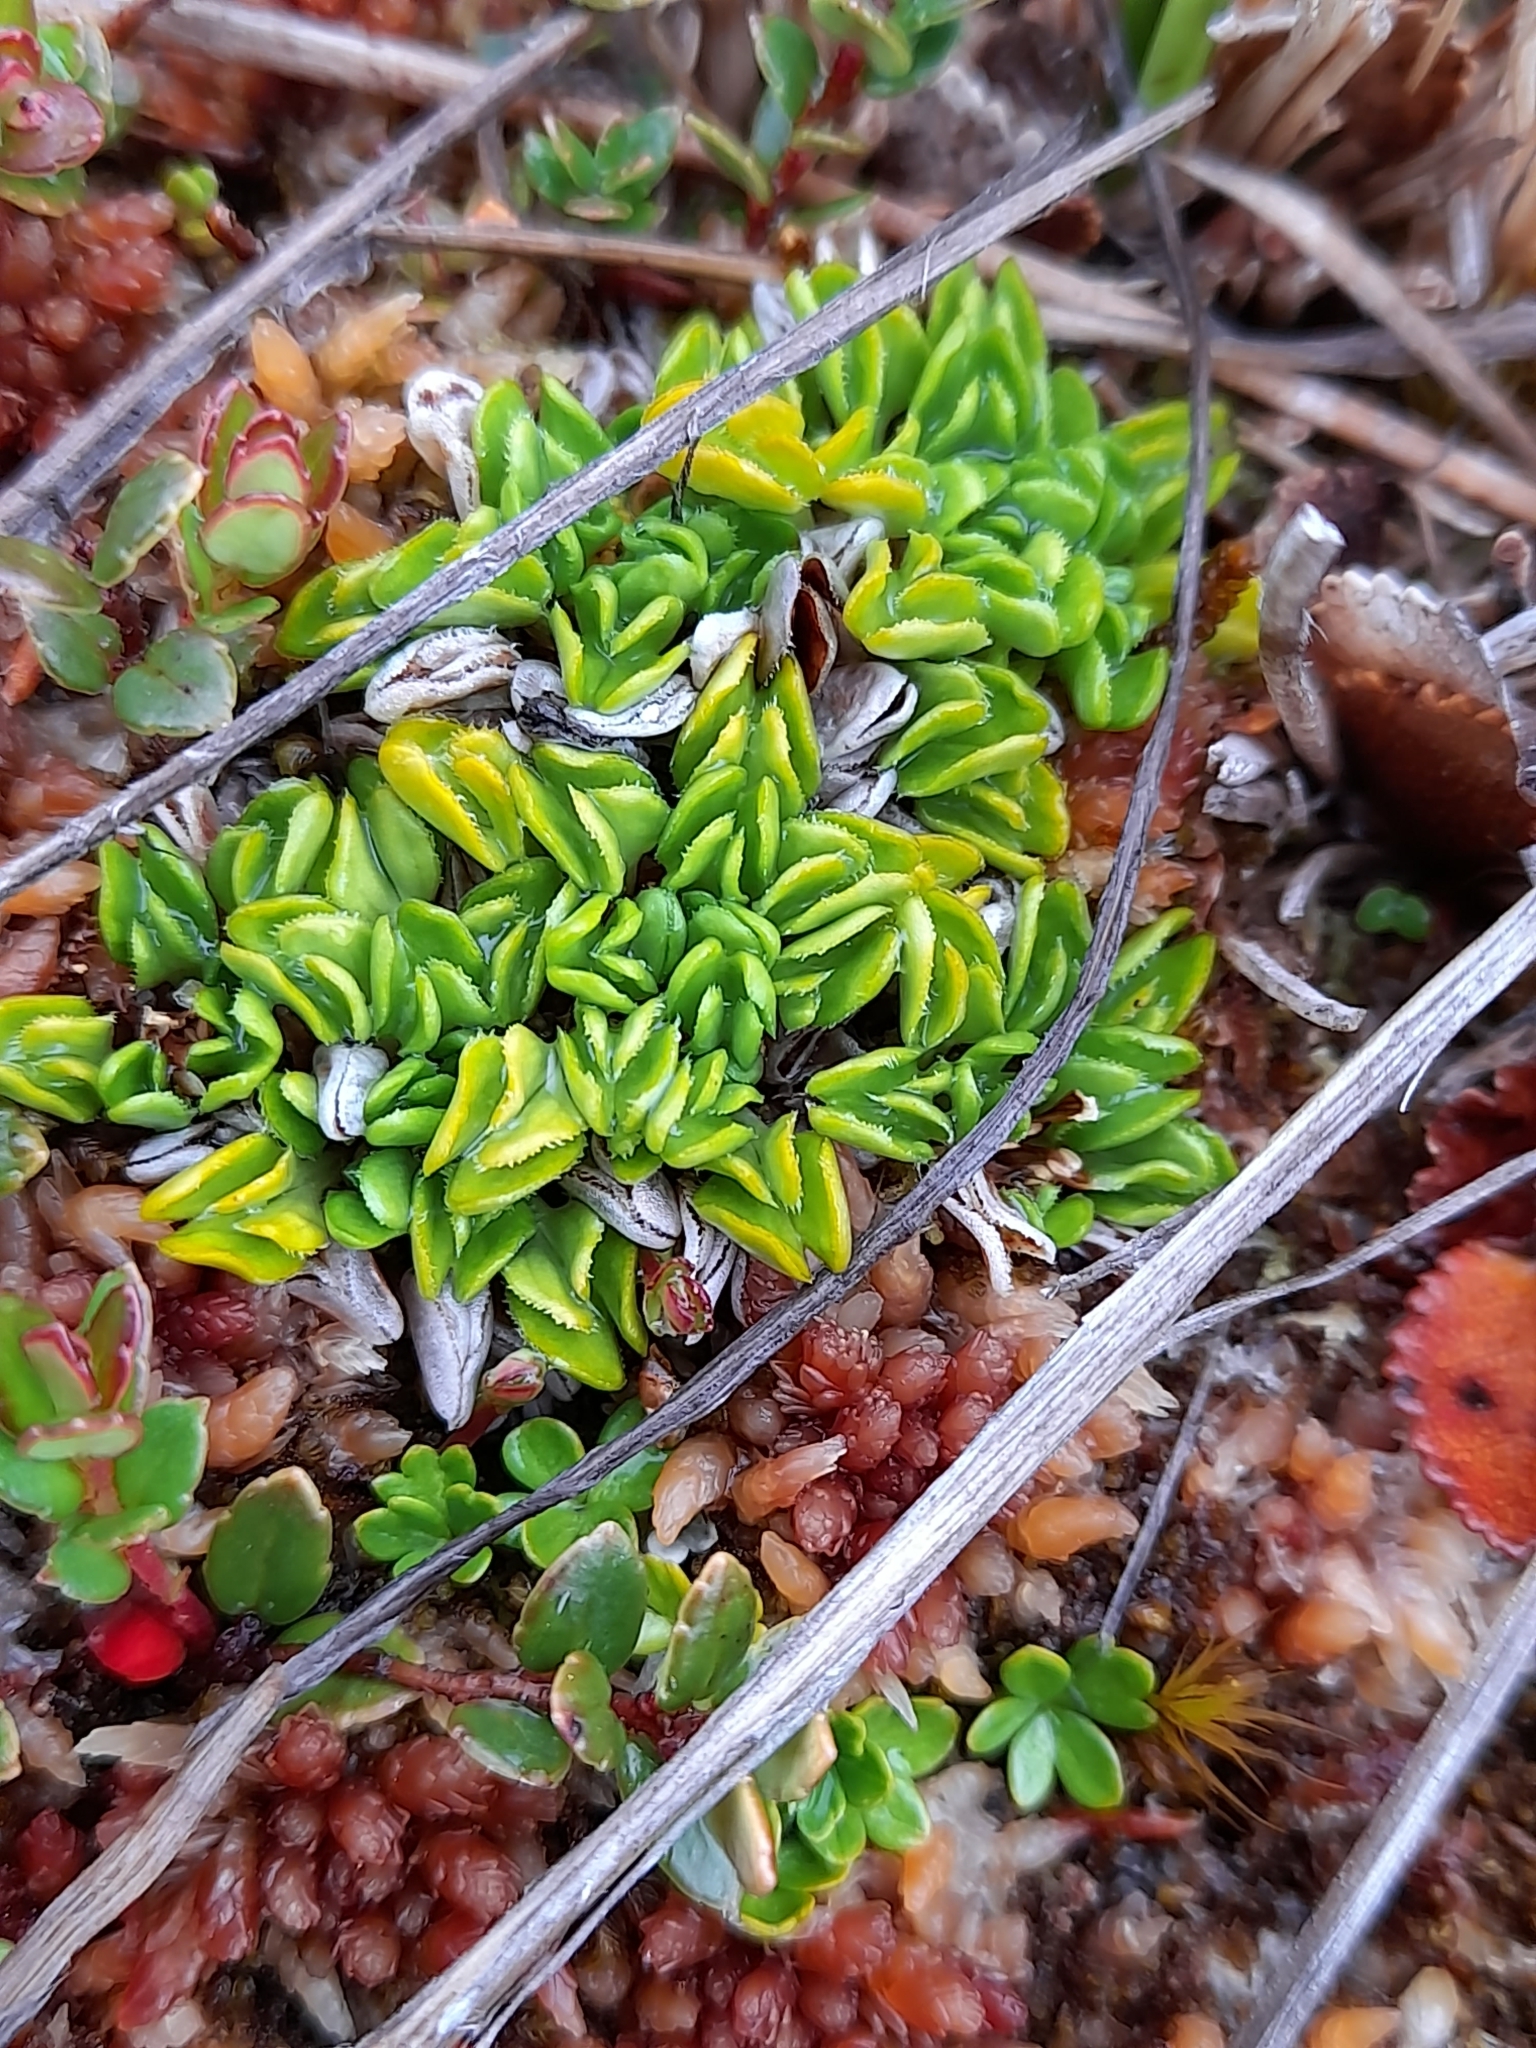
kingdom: Plantae
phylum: Tracheophyta
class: Magnoliopsida
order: Ranunculales
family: Ranunculaceae
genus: Caltha
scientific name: Caltha dionaeifolia
